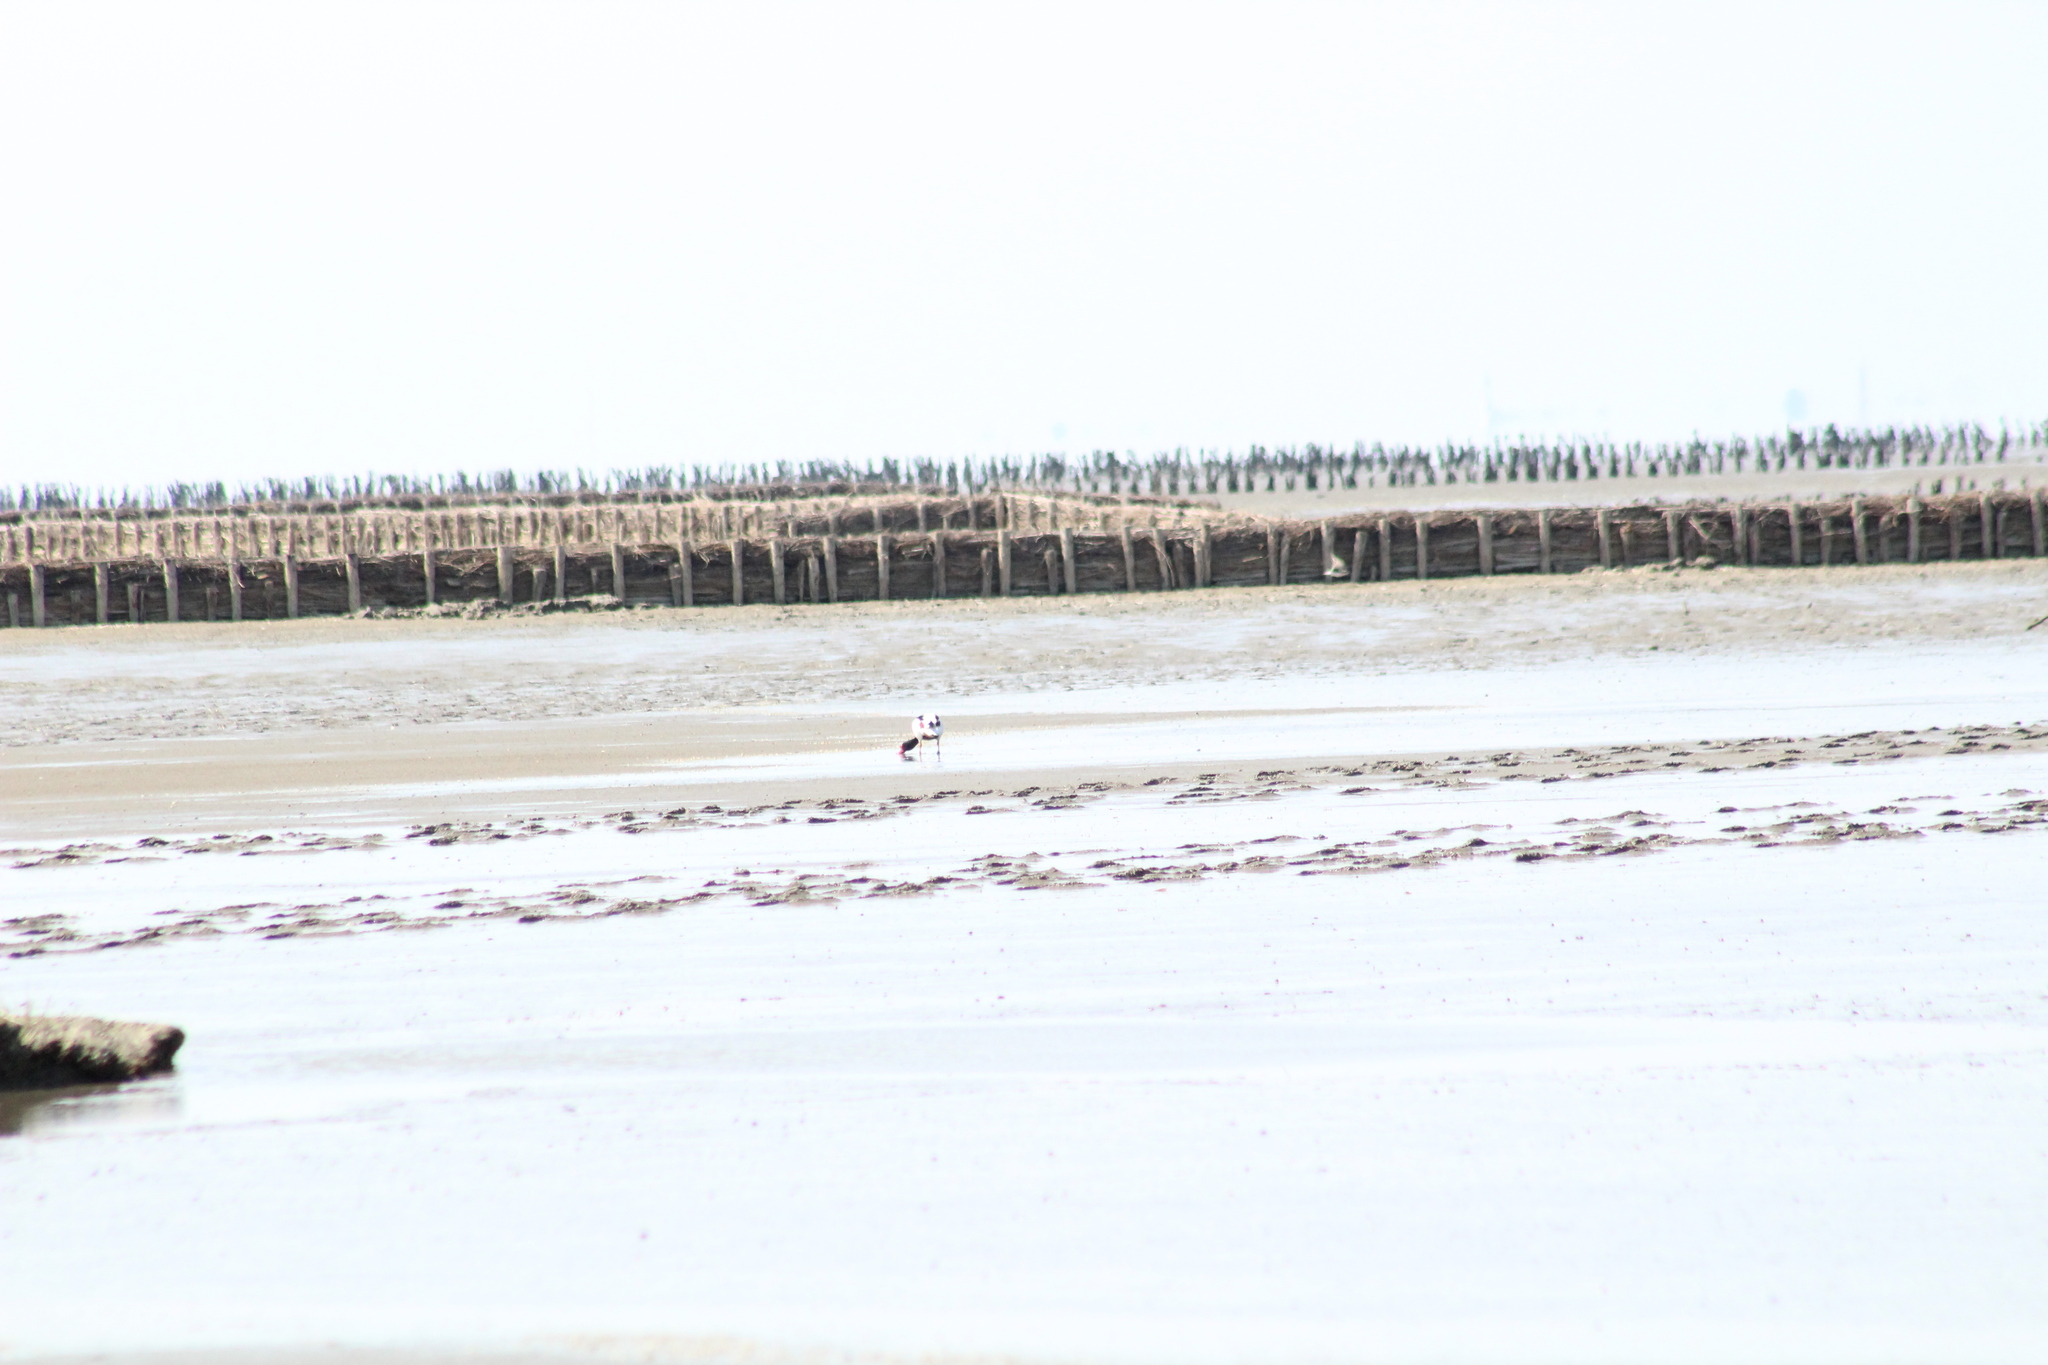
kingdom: Animalia
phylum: Chordata
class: Aves
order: Anseriformes
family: Anatidae
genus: Tadorna
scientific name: Tadorna tadorna
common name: Common shelduck
